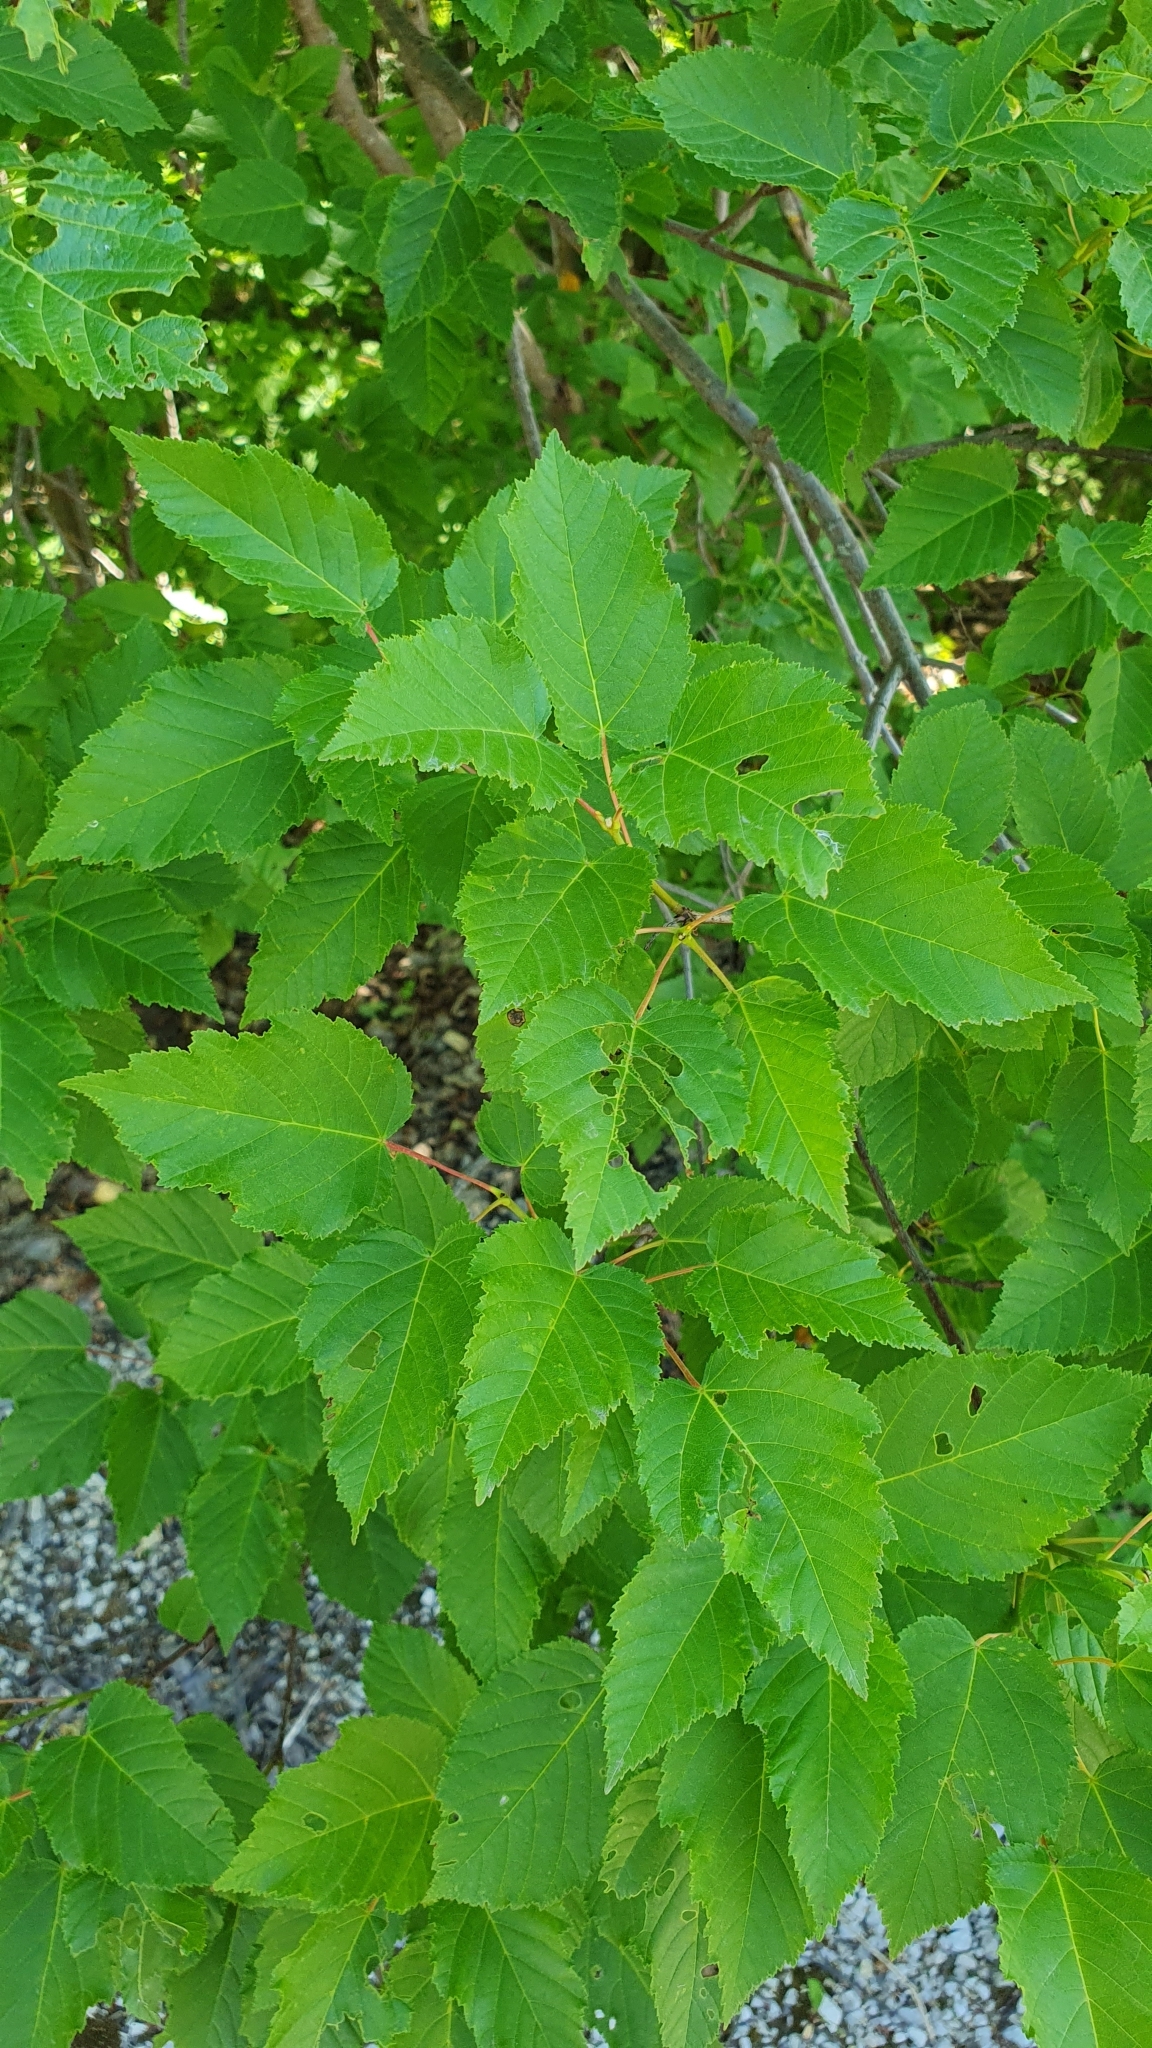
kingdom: Plantae
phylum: Tracheophyta
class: Magnoliopsida
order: Sapindales
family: Sapindaceae
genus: Acer
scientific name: Acer tataricum
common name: Tartar maple
